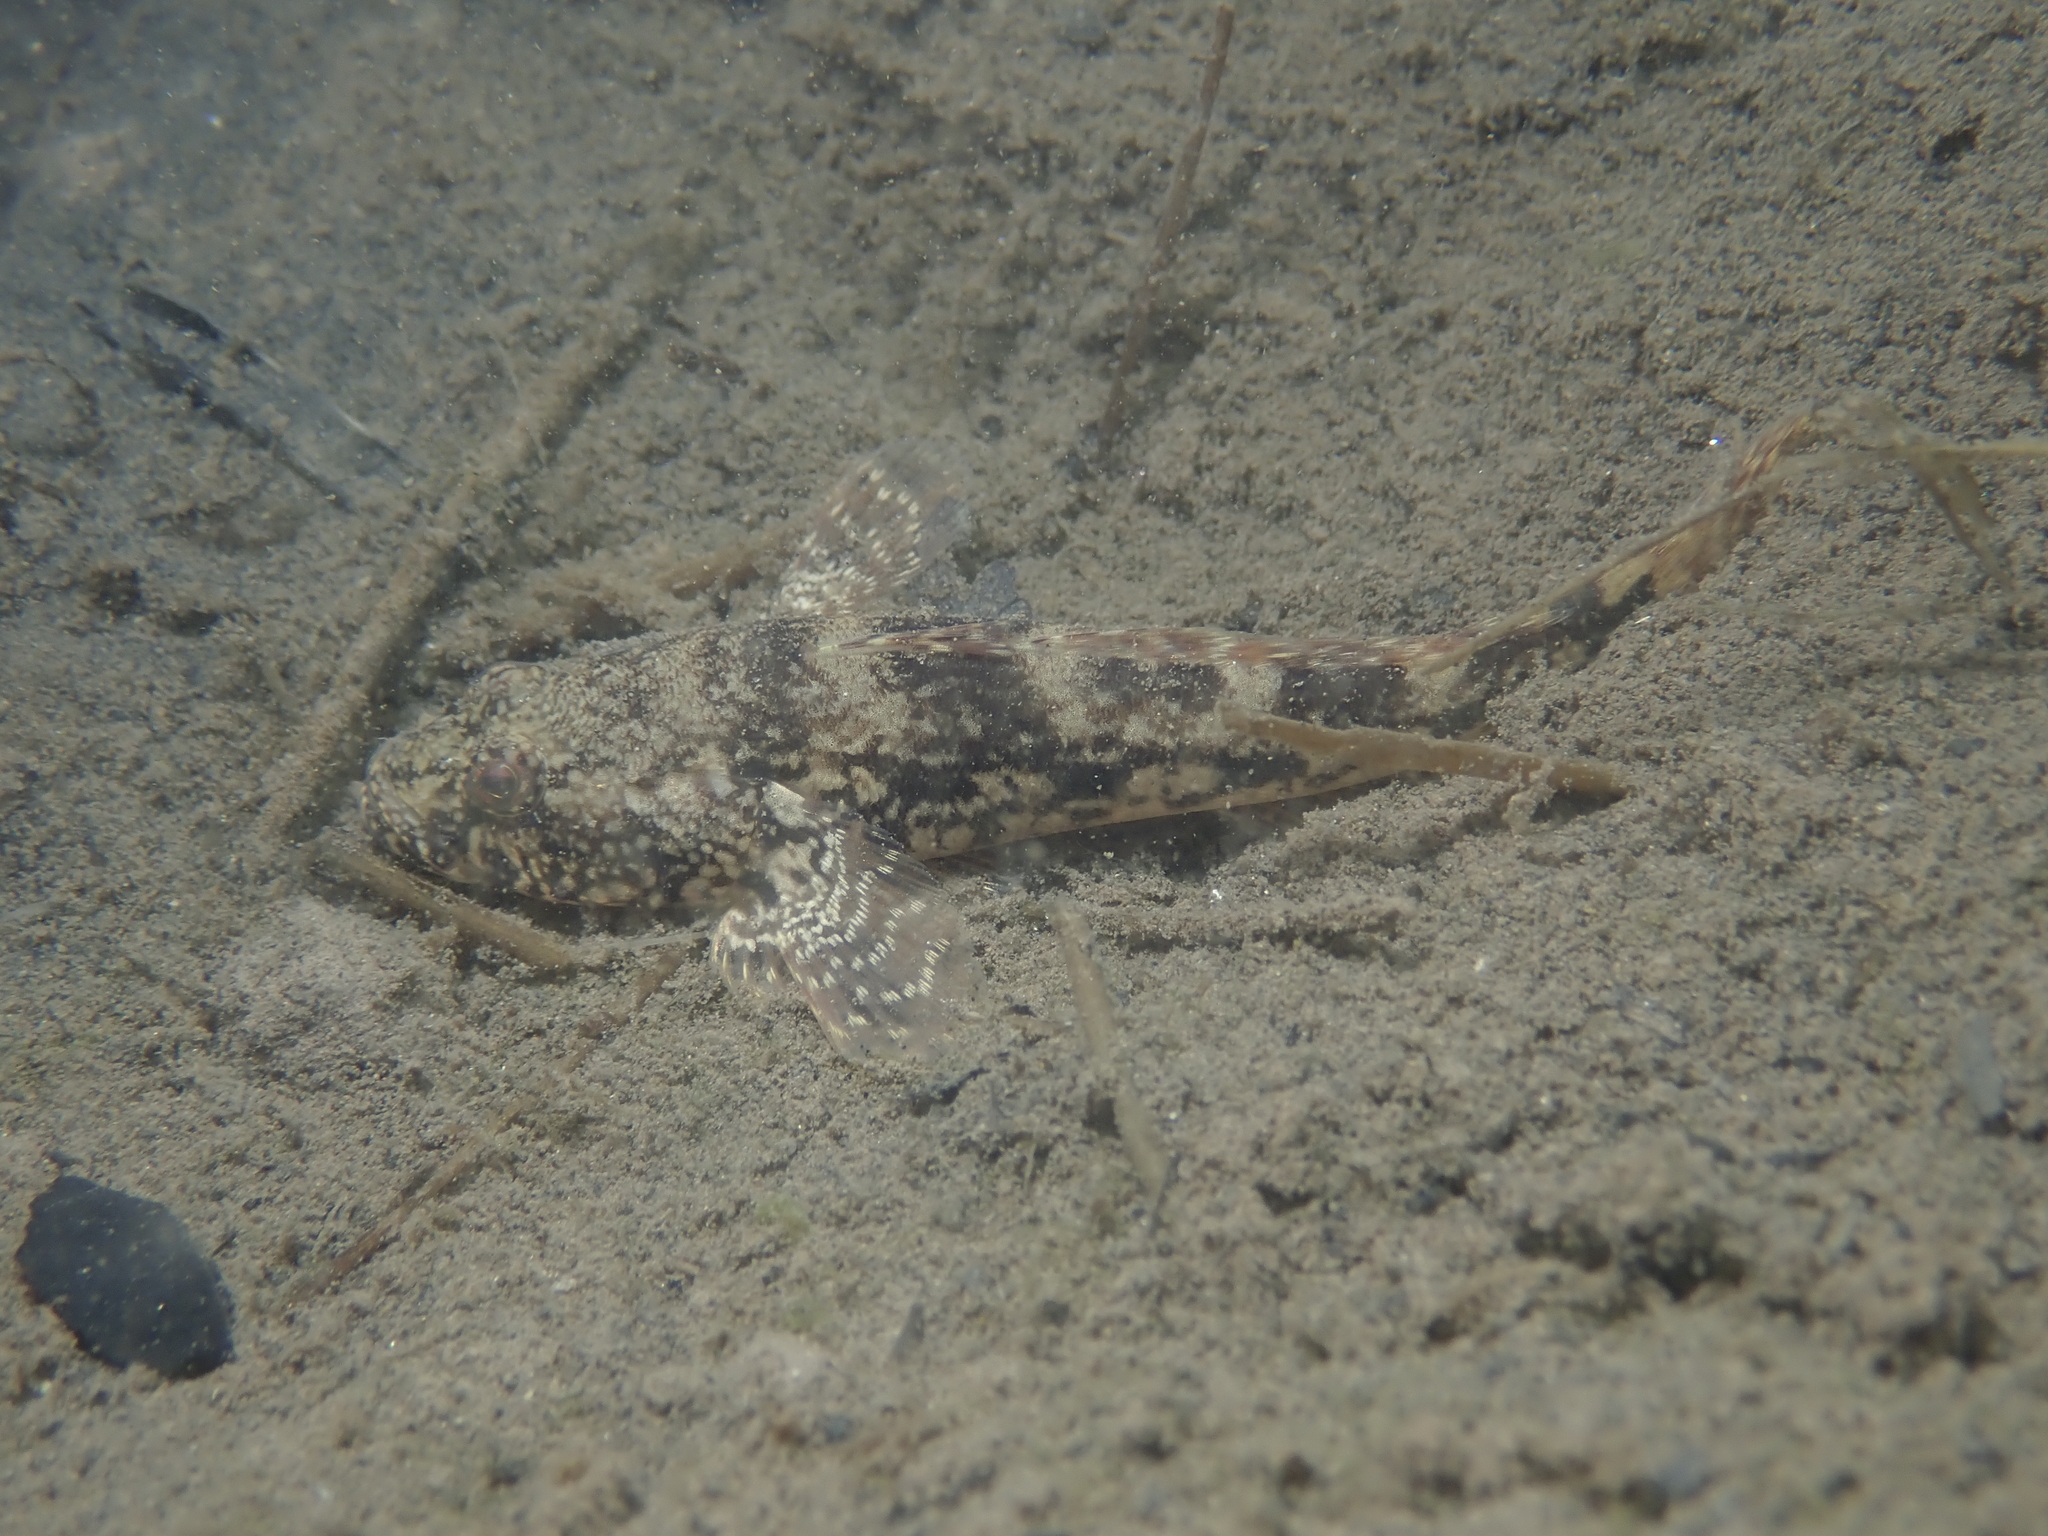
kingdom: Animalia
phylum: Chordata
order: Perciformes
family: Gobiidae
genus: Ponticola
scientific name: Ponticola kessleri
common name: Bighead goby
